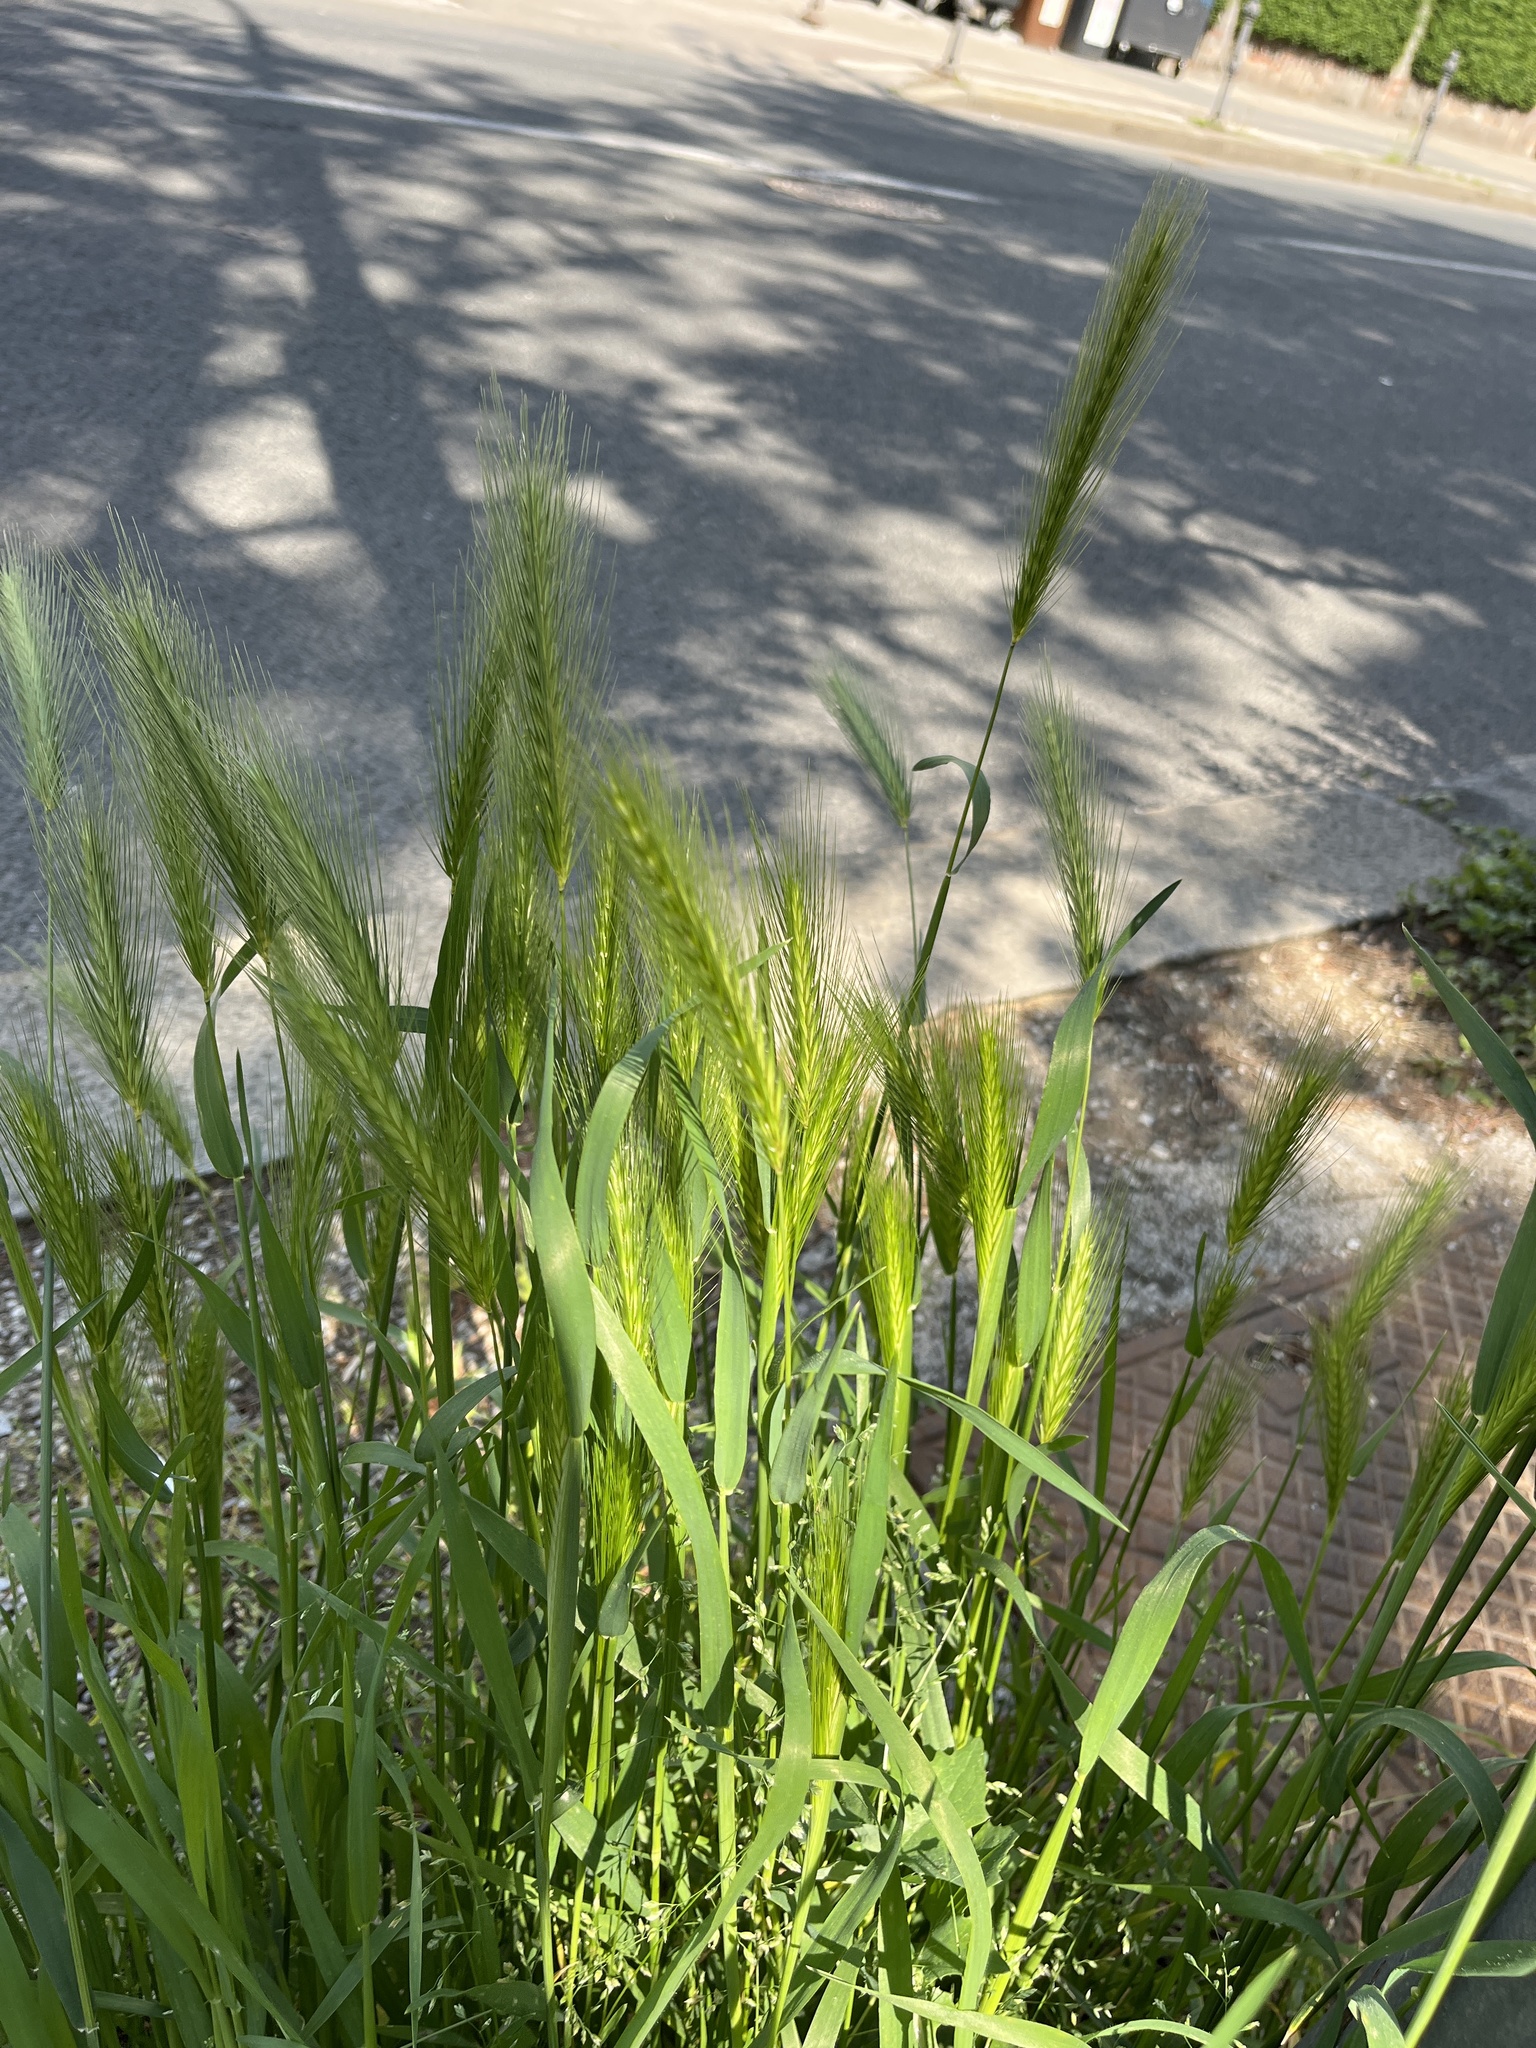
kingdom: Plantae
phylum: Tracheophyta
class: Liliopsida
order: Poales
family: Poaceae
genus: Hordeum
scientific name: Hordeum murinum
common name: Wall barley
